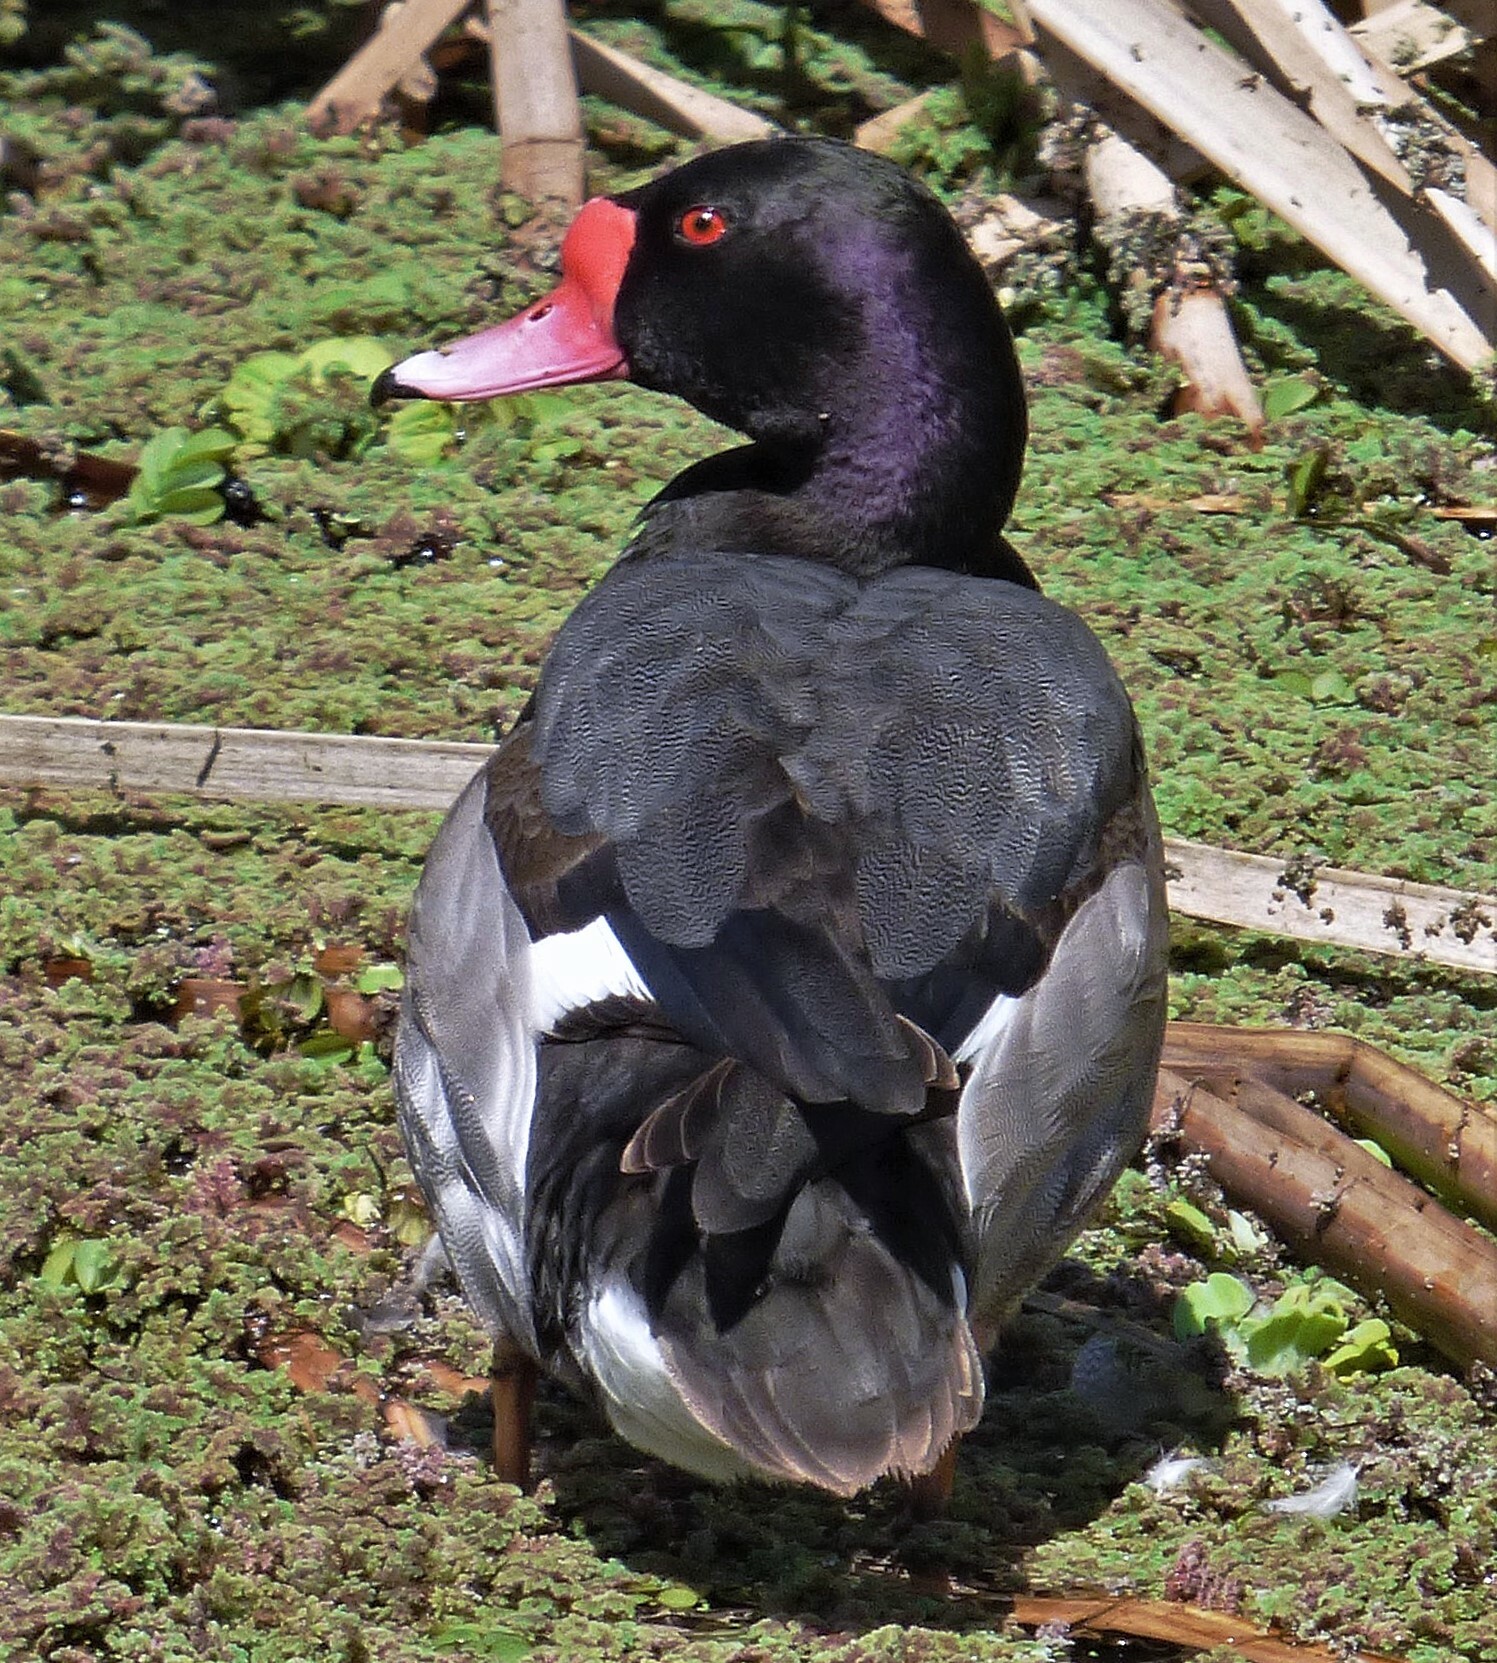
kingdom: Animalia
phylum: Chordata
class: Aves
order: Anseriformes
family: Anatidae
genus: Netta
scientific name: Netta peposaca
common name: Rosy-billed pochard
